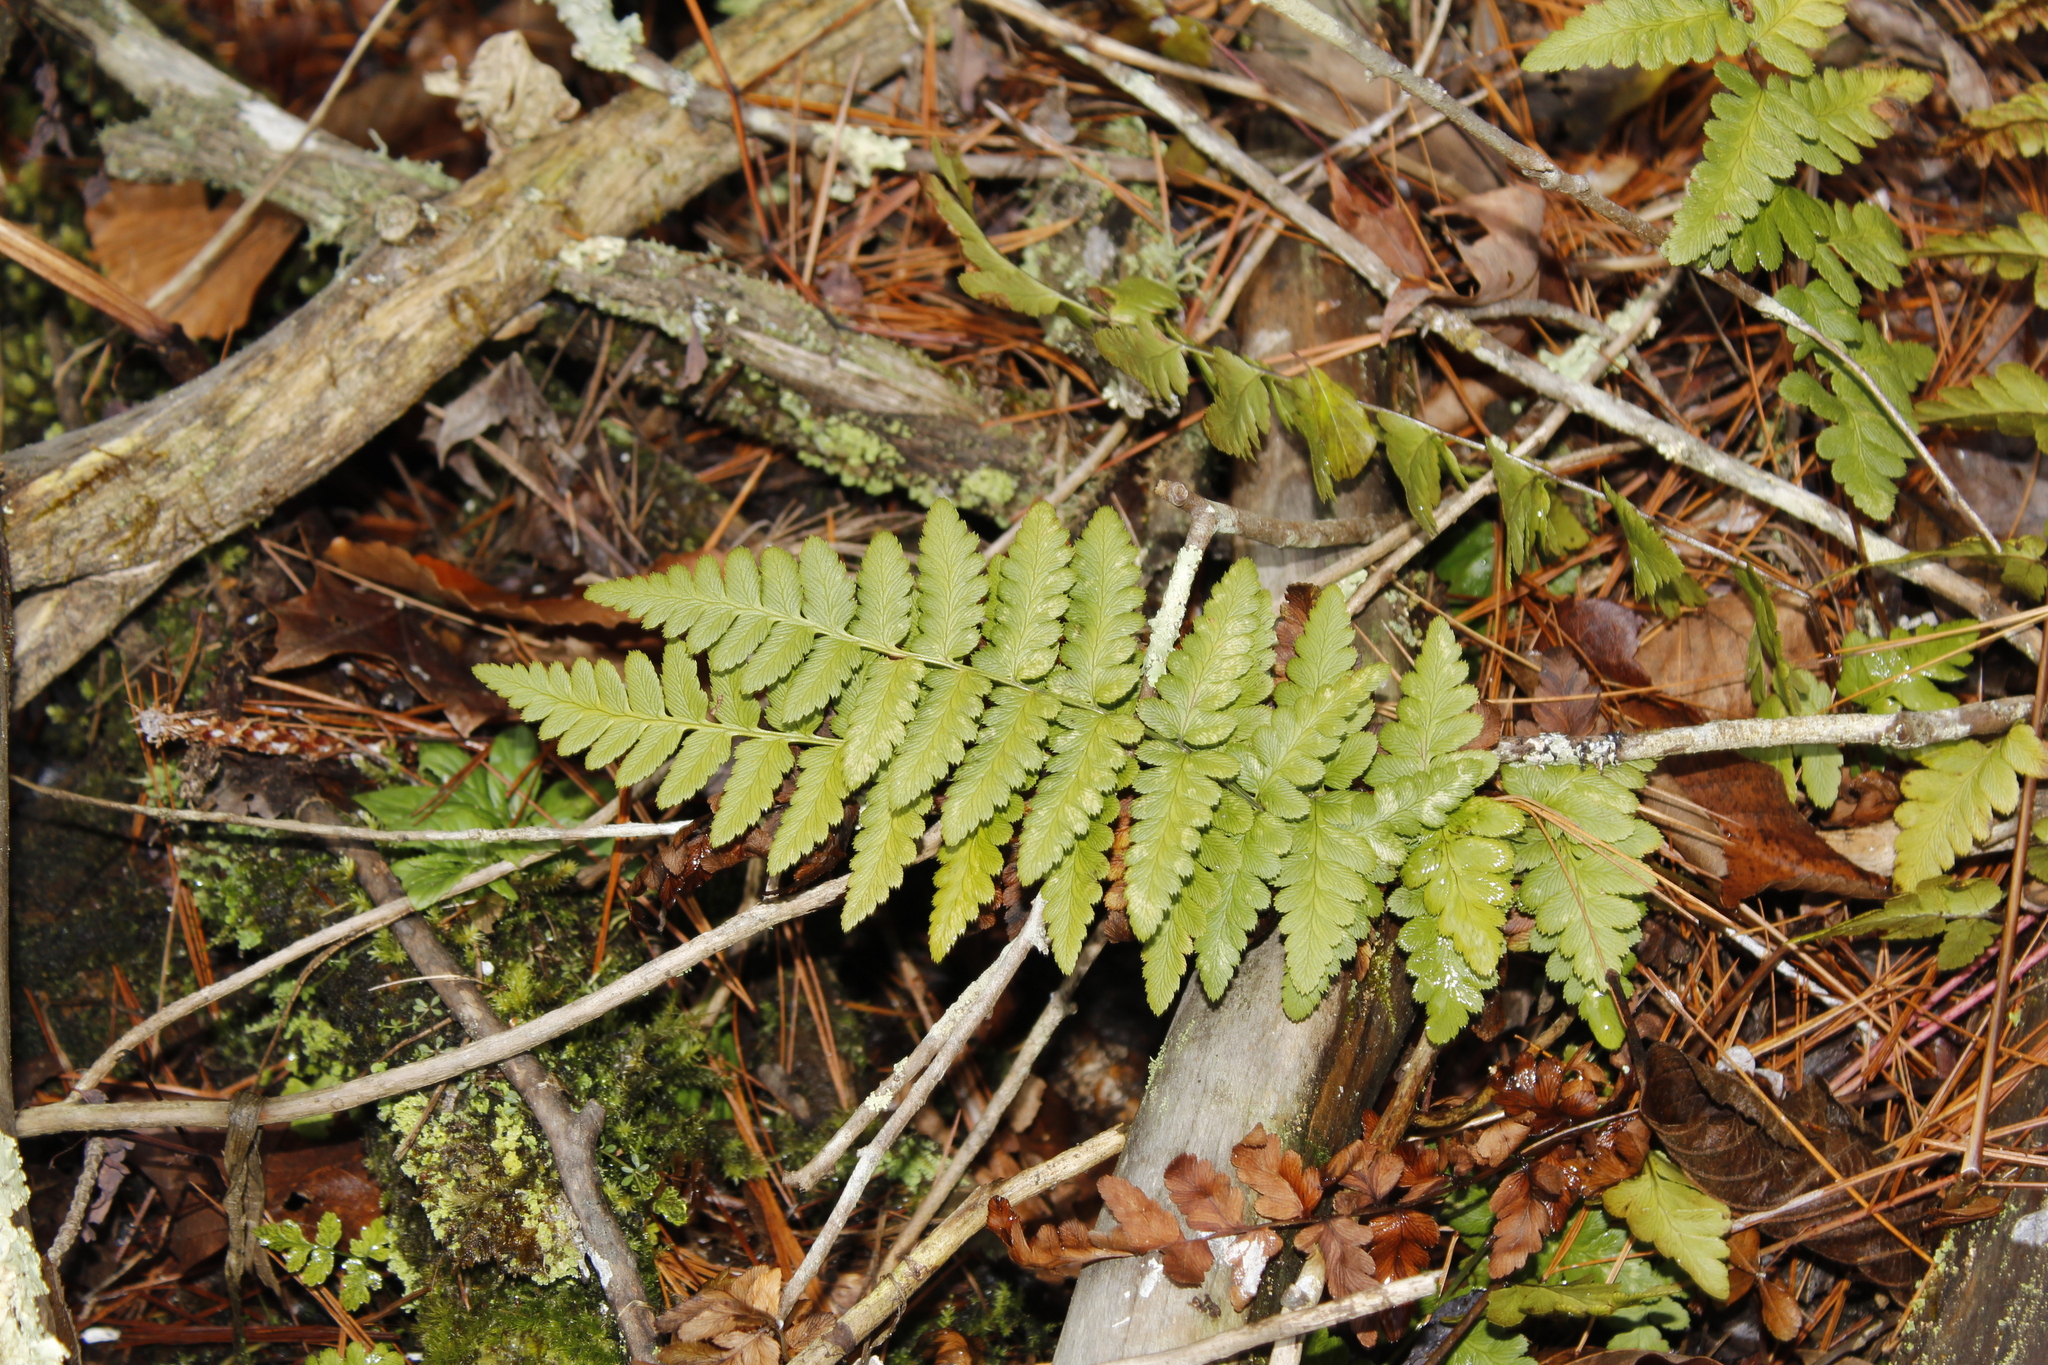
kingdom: Plantae
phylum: Tracheophyta
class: Polypodiopsida
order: Polypodiales
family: Dryopteridaceae
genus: Dryopteris
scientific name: Dryopteris cristata
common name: Crested wood fern
